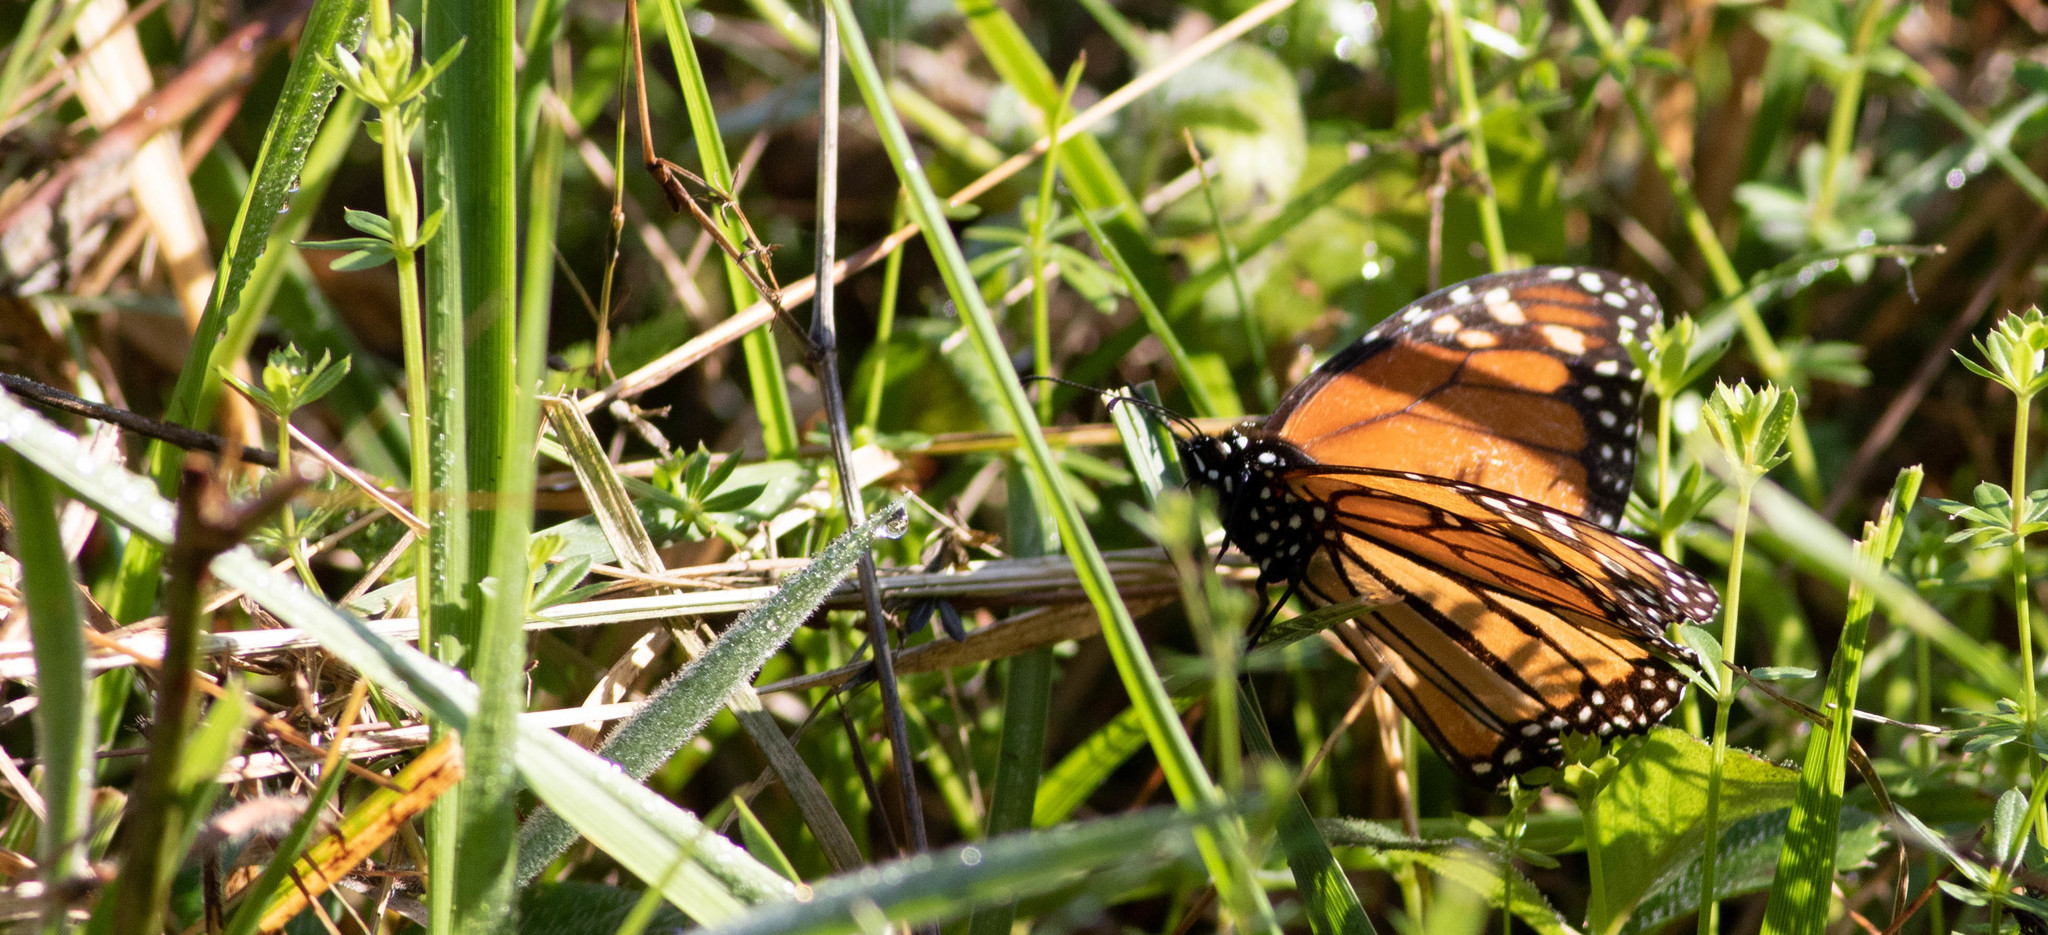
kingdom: Animalia
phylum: Arthropoda
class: Insecta
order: Lepidoptera
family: Nymphalidae
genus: Danaus
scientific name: Danaus plexippus
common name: Monarch
